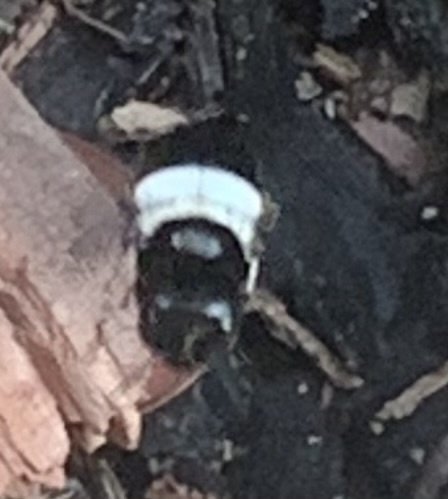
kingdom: Animalia
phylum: Arthropoda
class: Insecta
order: Hymenoptera
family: Apidae
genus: Xylocopa
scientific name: Xylocopa inconstans
